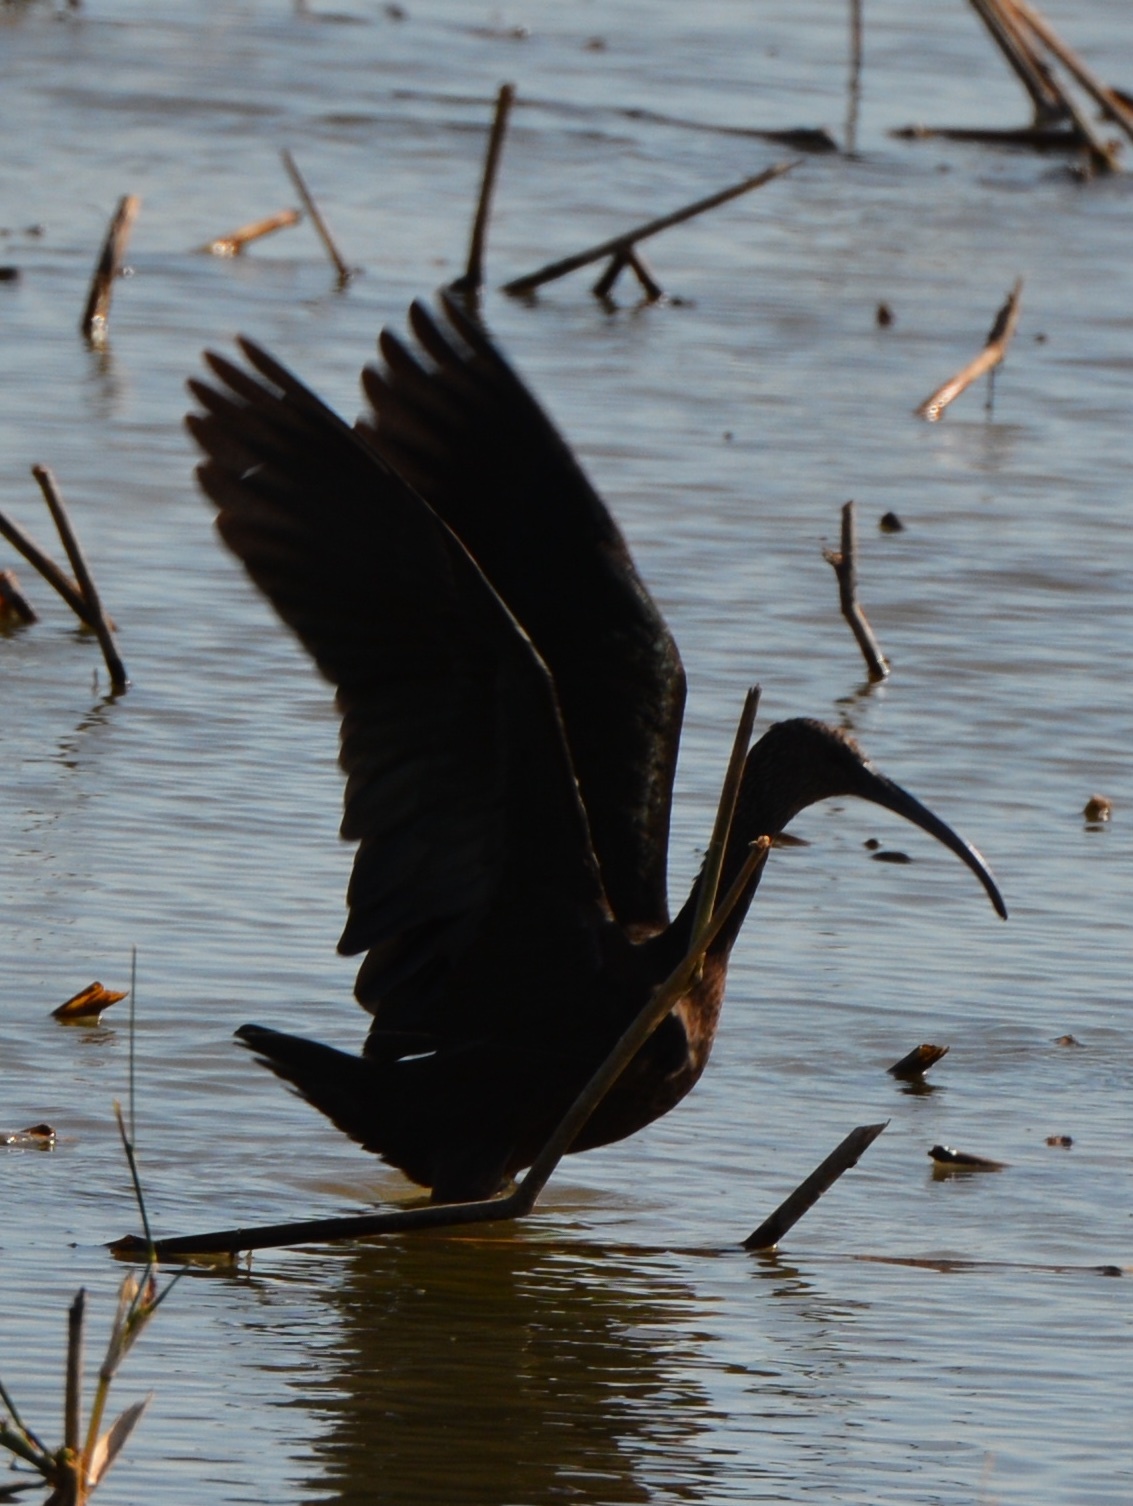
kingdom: Animalia
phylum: Chordata
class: Aves
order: Pelecaniformes
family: Threskiornithidae
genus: Plegadis
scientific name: Plegadis chihi
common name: White-faced ibis
